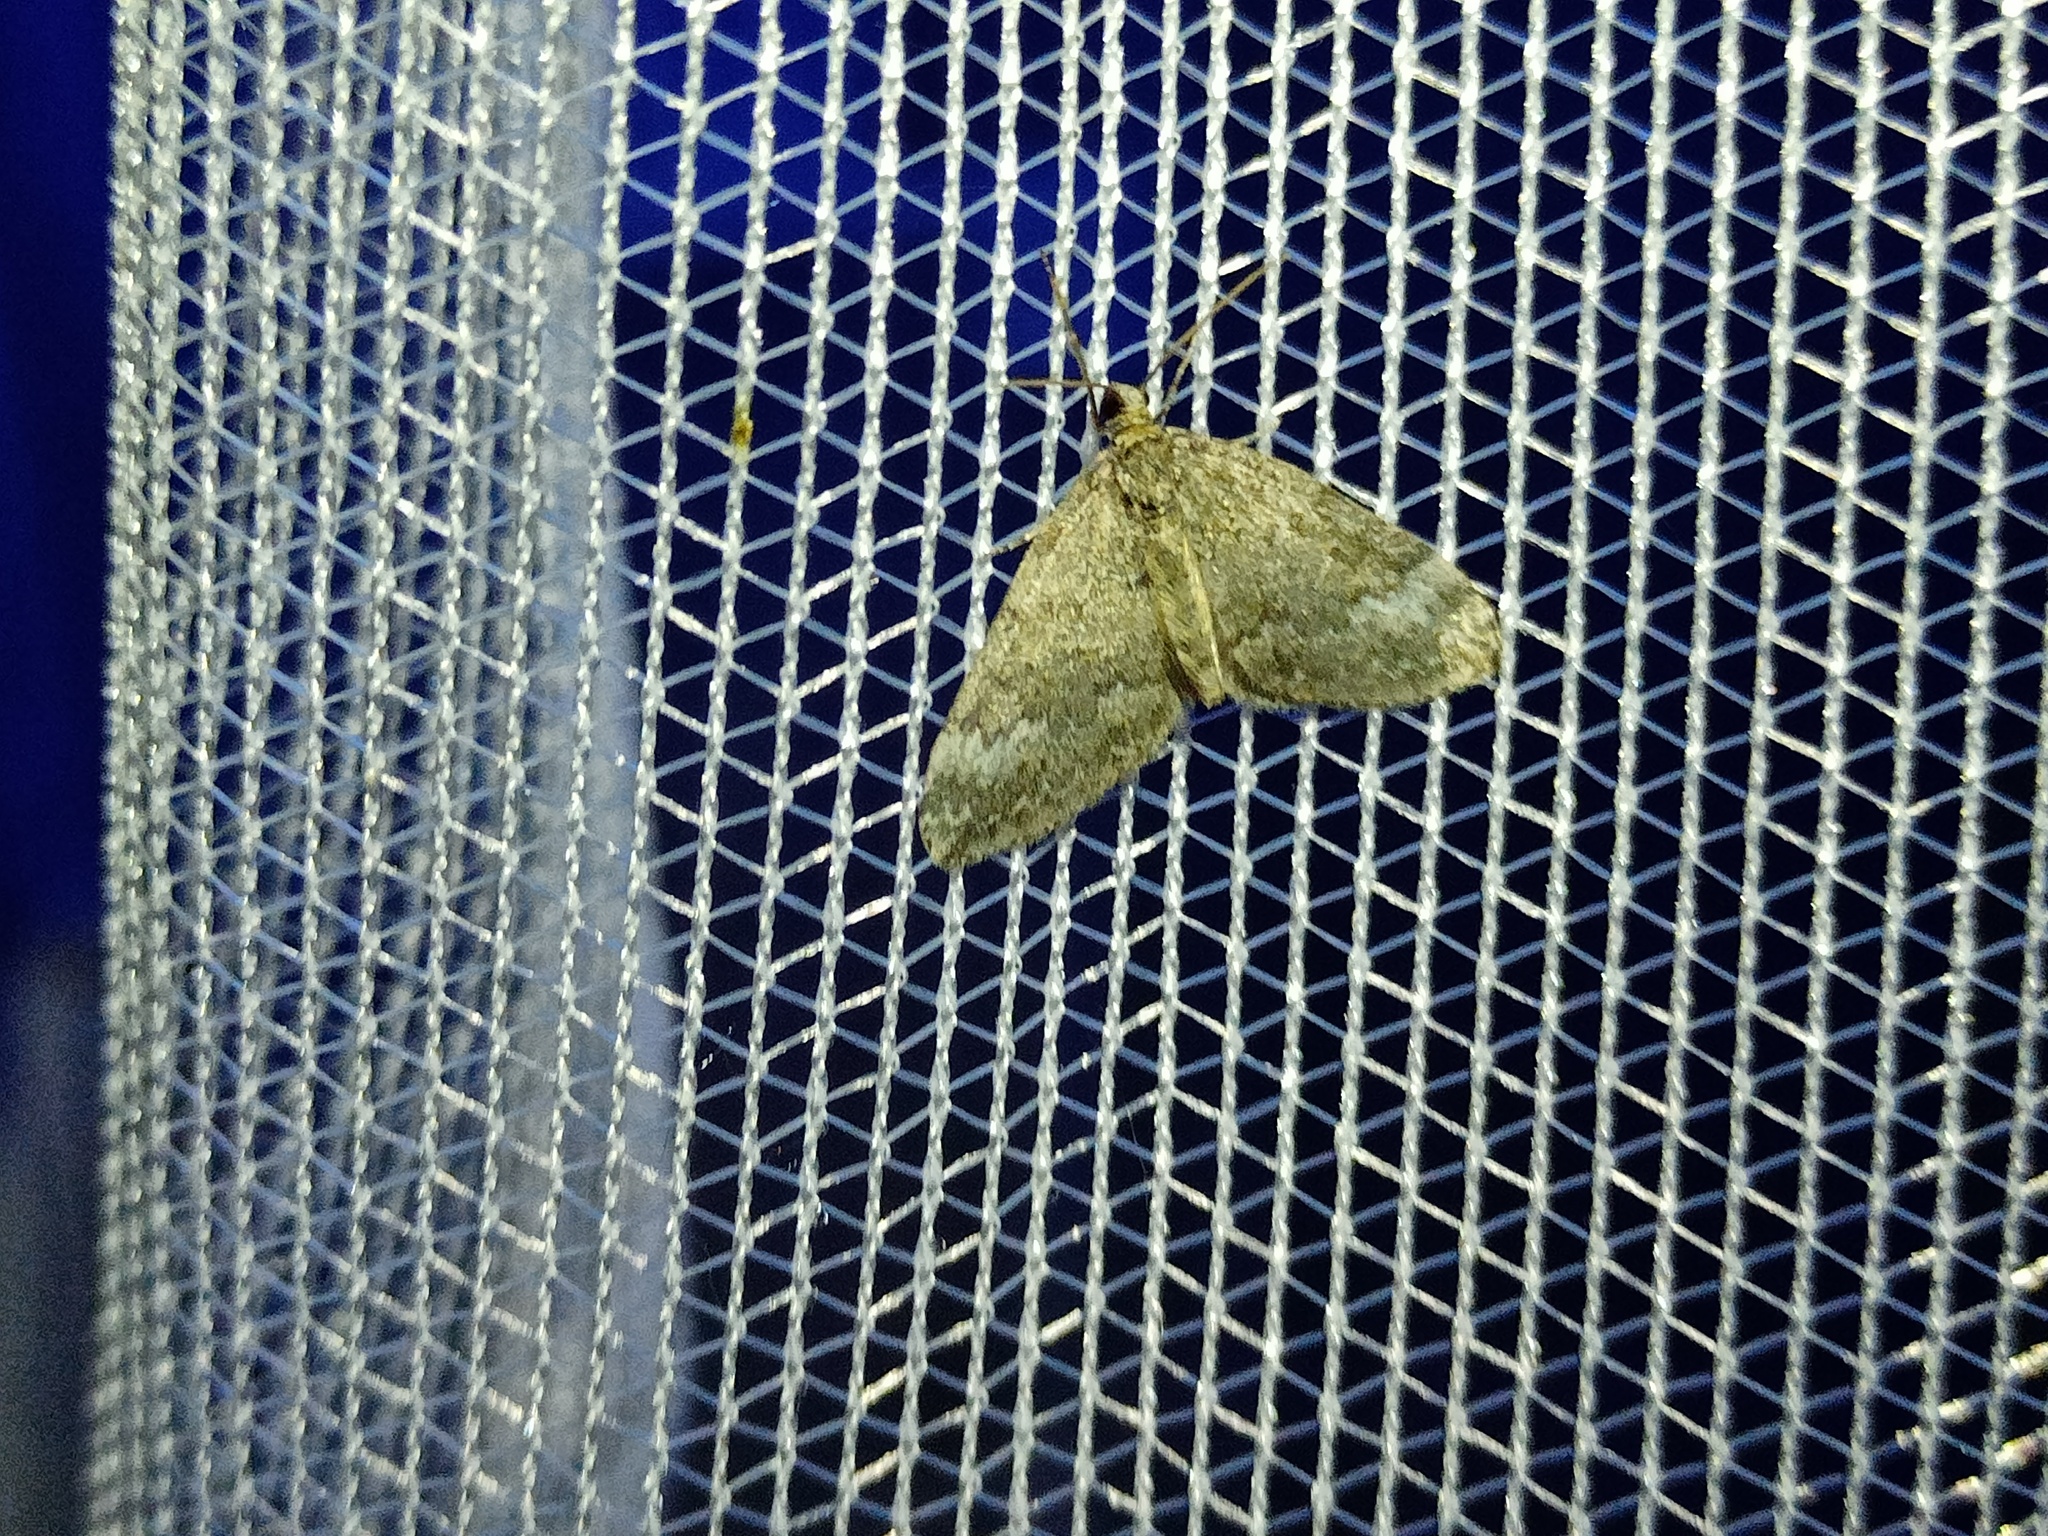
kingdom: Animalia
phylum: Arthropoda
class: Insecta
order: Lepidoptera
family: Geometridae
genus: Perizoma
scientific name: Perizoma hydrata
